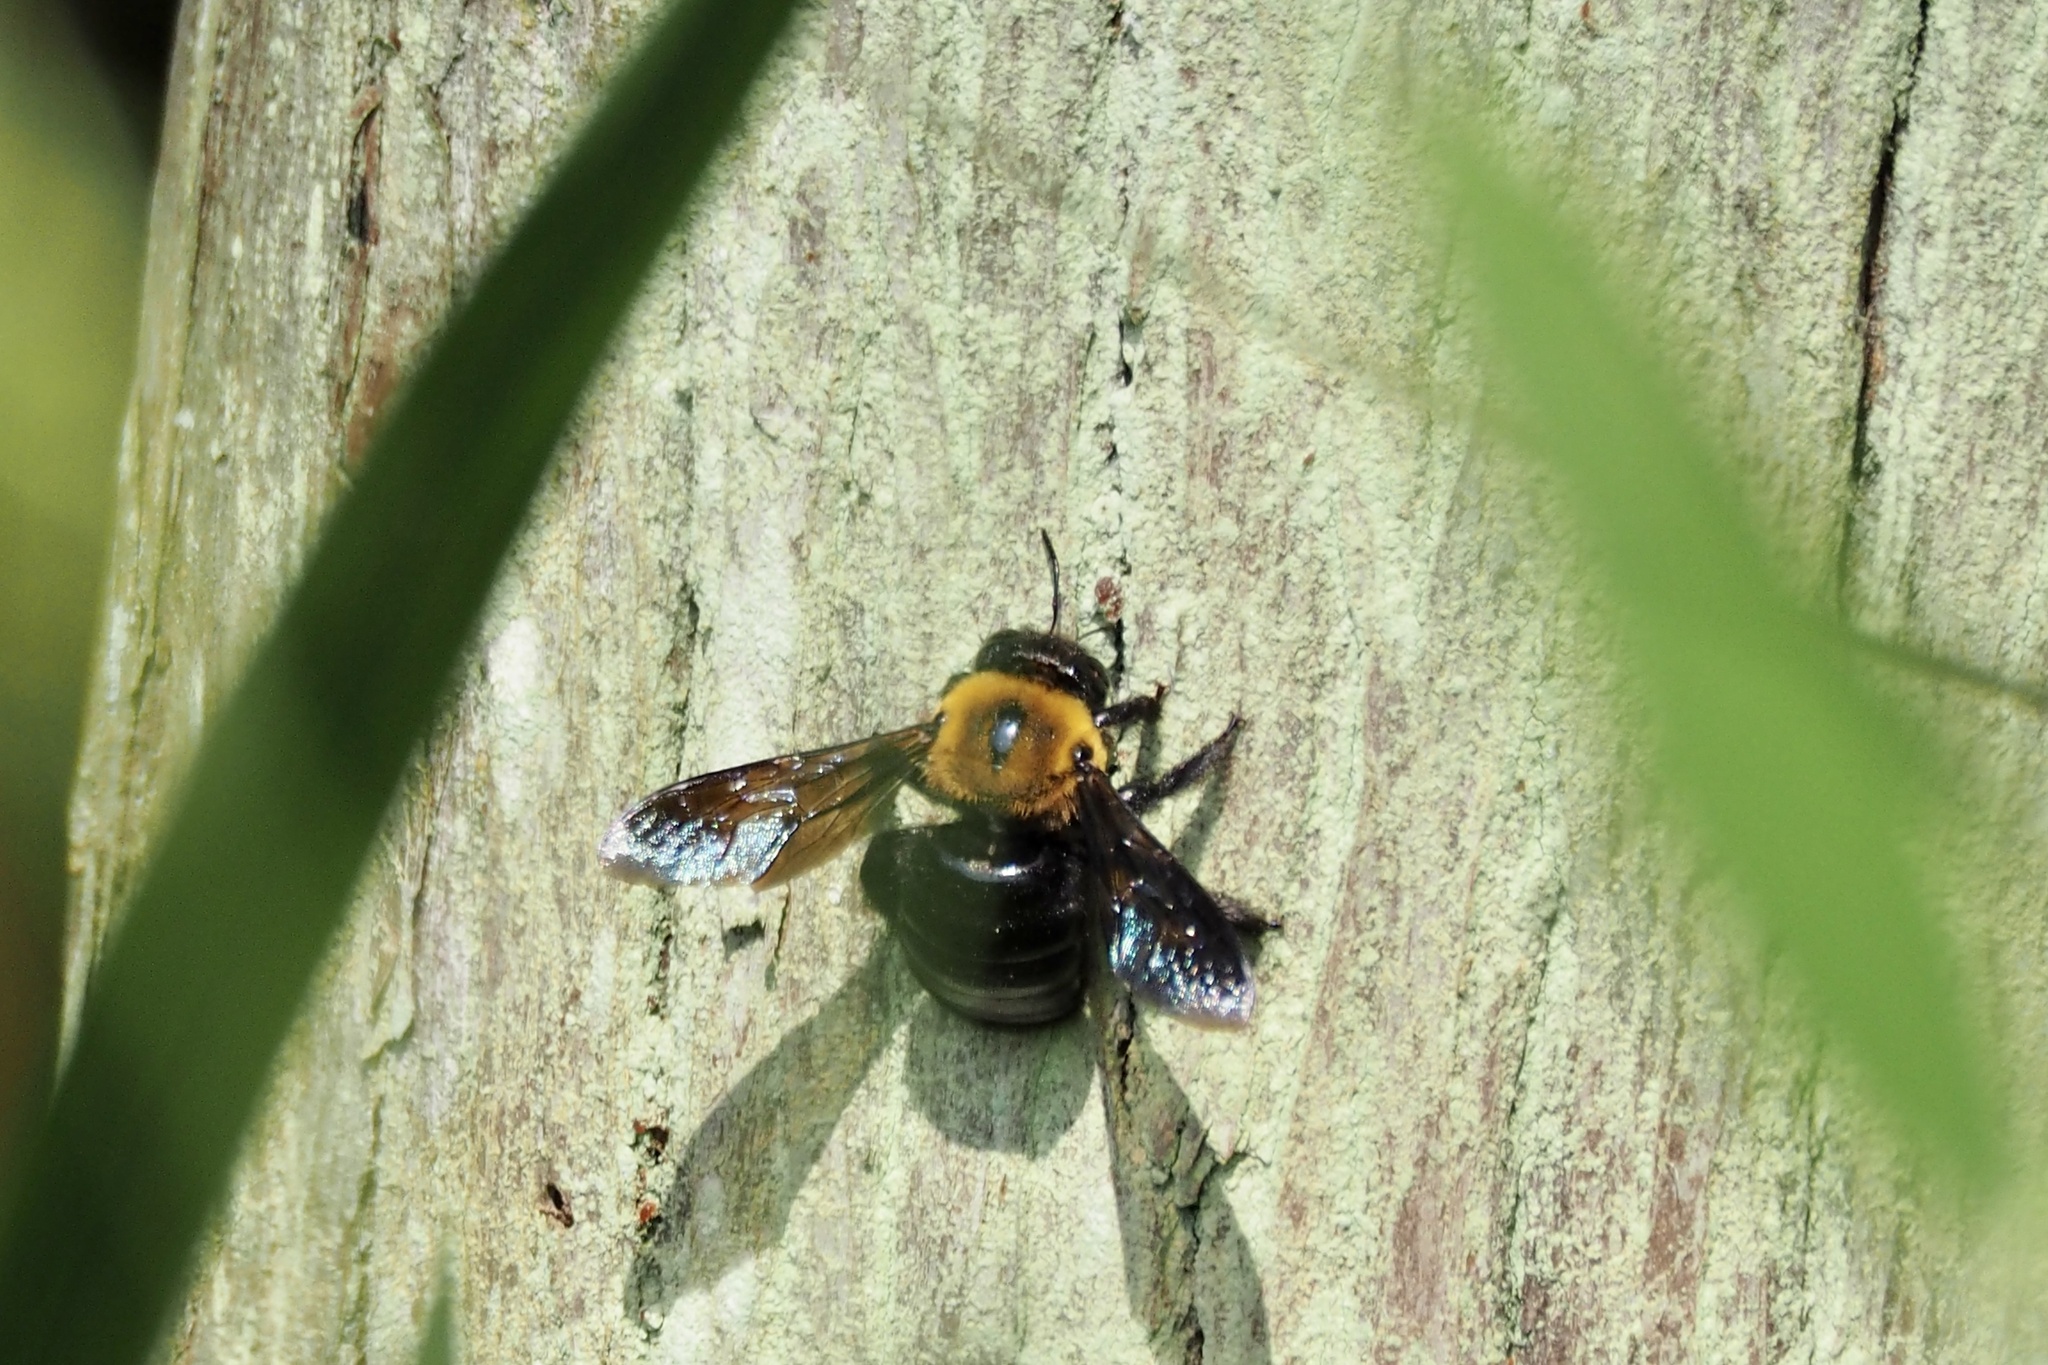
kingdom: Animalia
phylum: Arthropoda
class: Insecta
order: Hymenoptera
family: Apidae
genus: Xylocopa
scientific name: Xylocopa appendiculata
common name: Japanese carpenter bee
